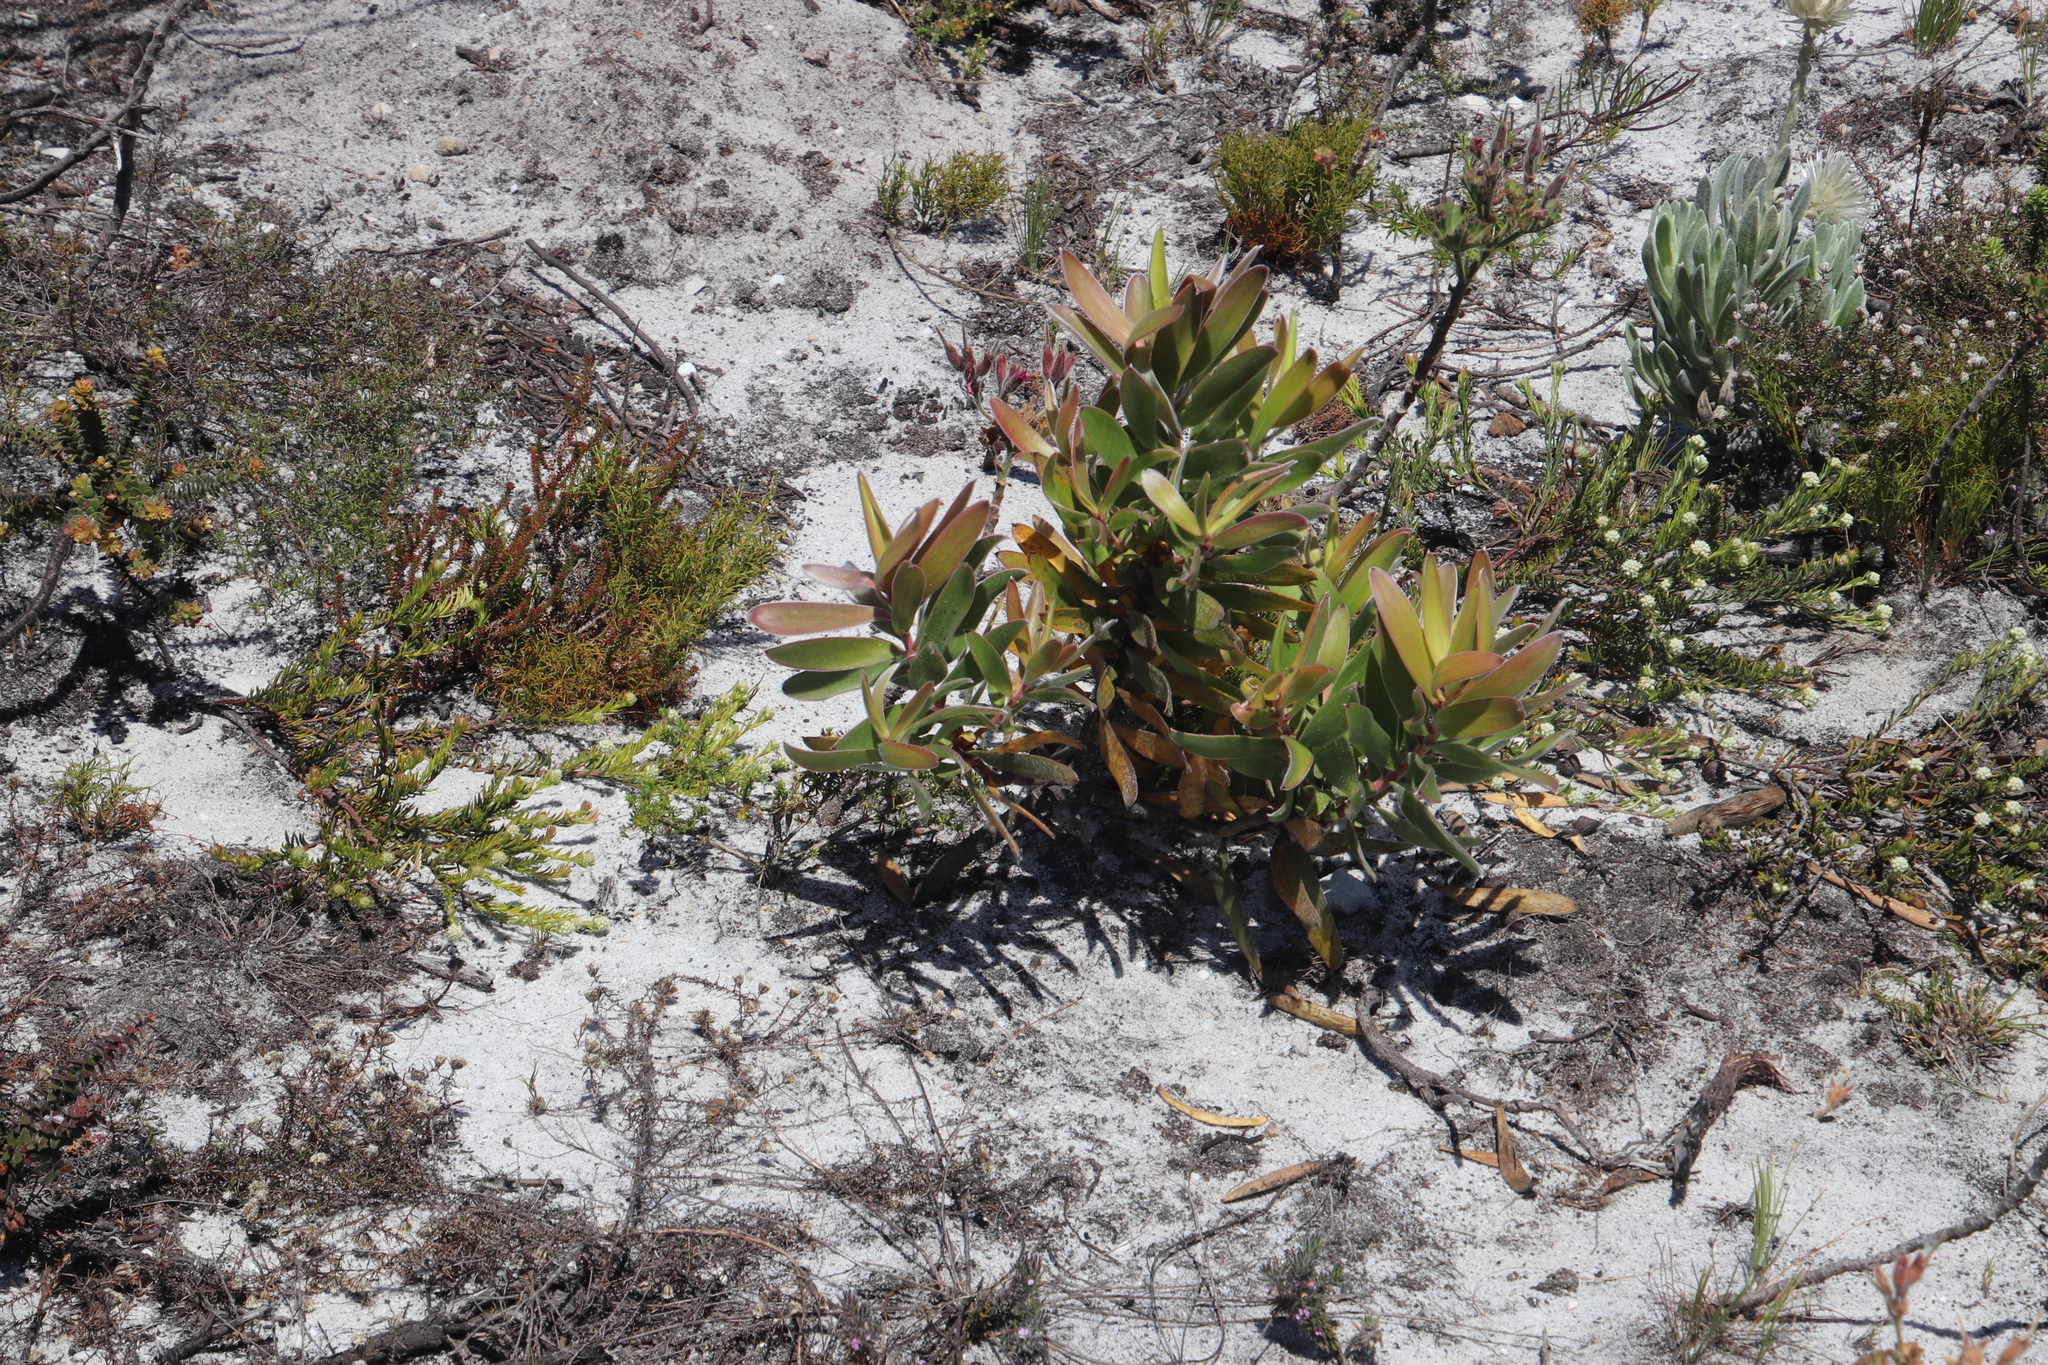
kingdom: Plantae
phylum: Tracheophyta
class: Magnoliopsida
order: Proteales
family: Proteaceae
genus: Leucadendron
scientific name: Leucadendron laureolum
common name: Golden sunshinebush
